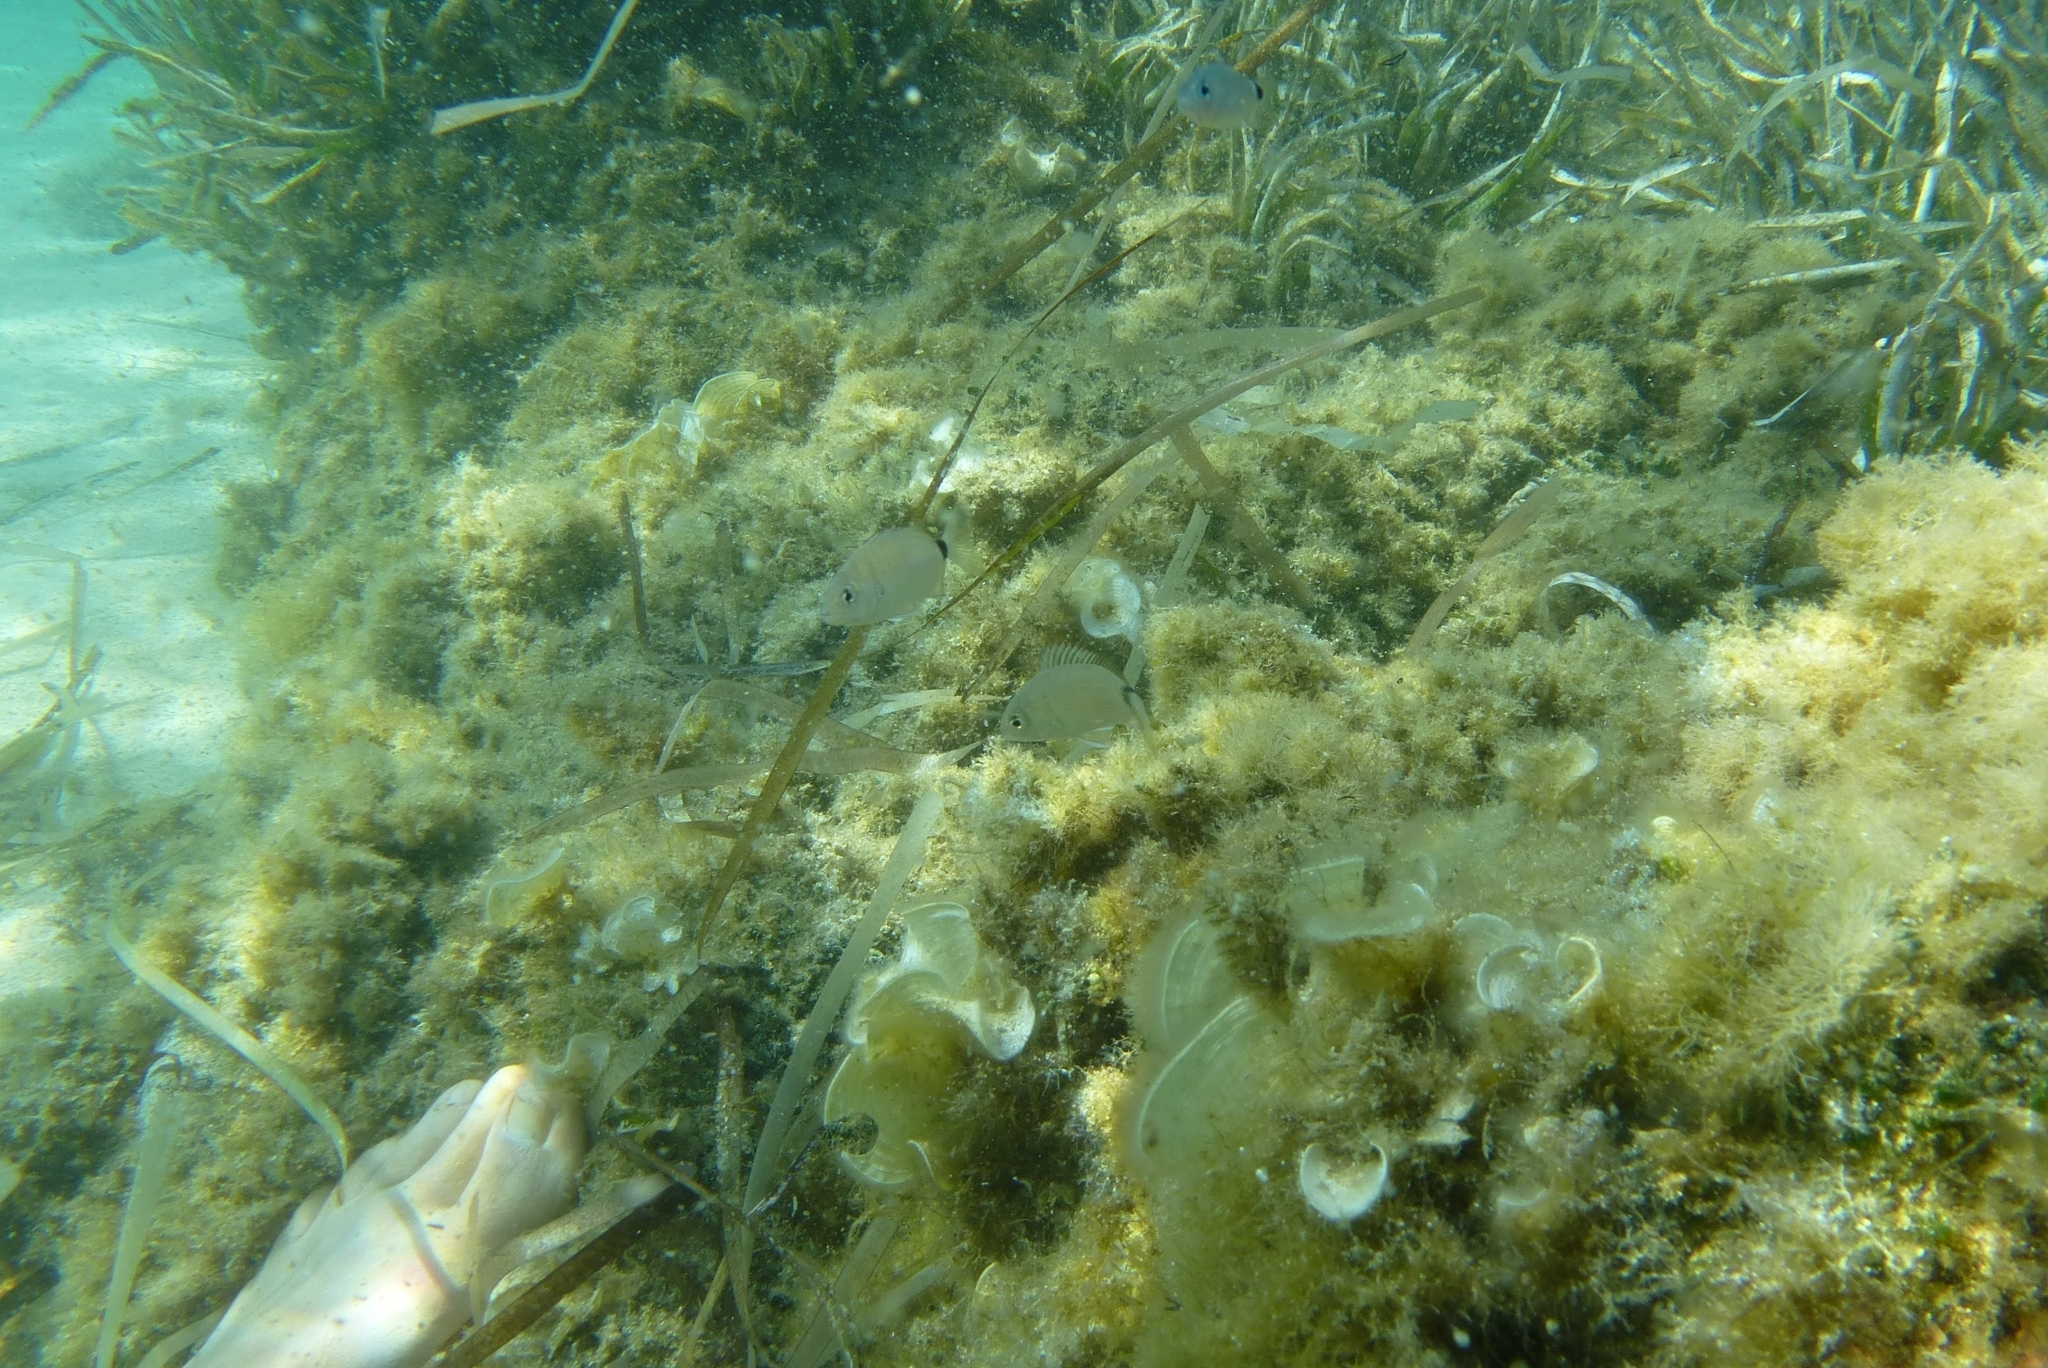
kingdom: Animalia
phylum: Chordata
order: Perciformes
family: Sparidae
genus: Diplodus
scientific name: Diplodus sargus
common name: White seabream
